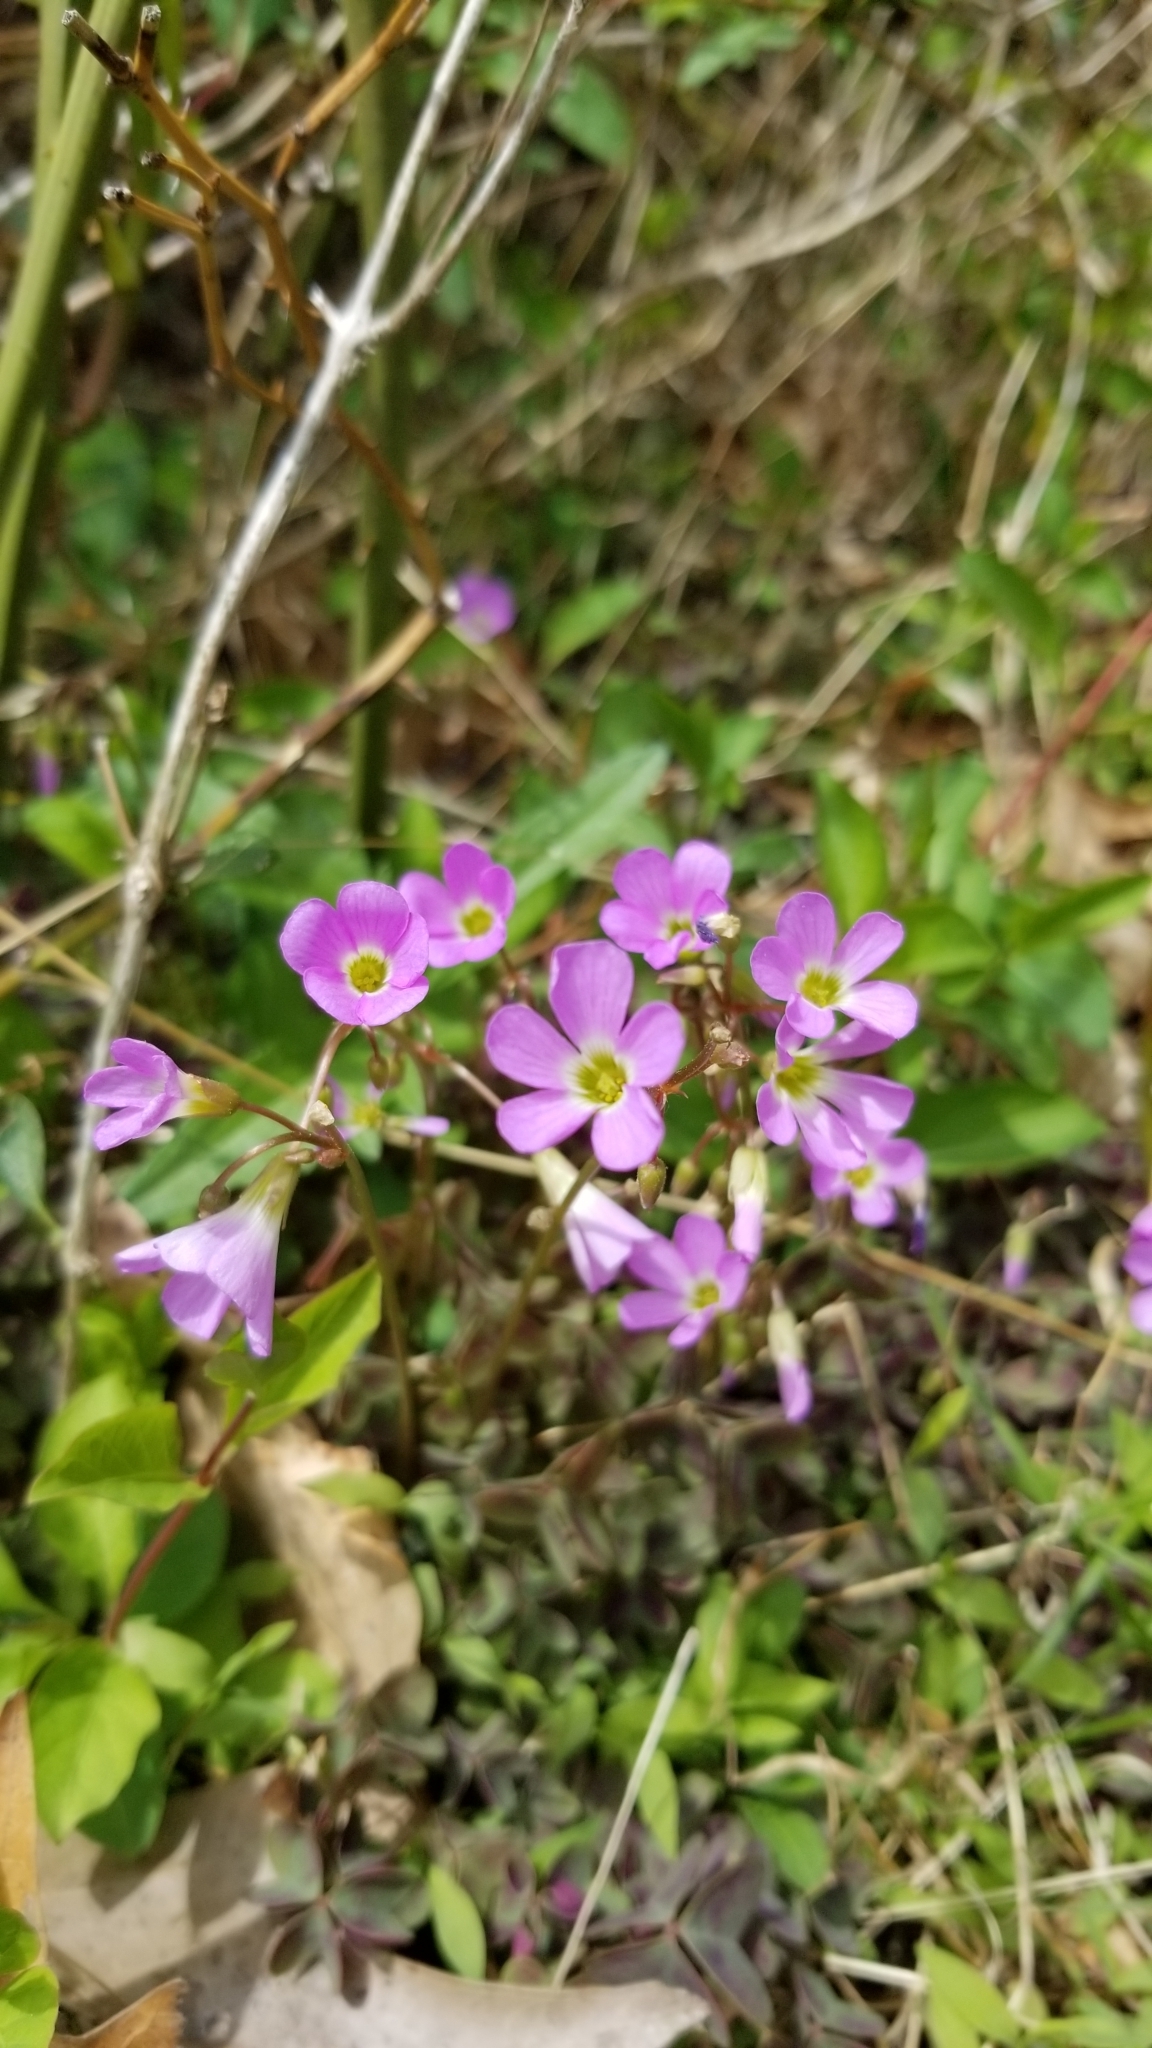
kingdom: Plantae
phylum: Tracheophyta
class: Magnoliopsida
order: Oxalidales
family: Oxalidaceae
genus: Oxalis
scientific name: Oxalis violacea
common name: Violet wood-sorrel
